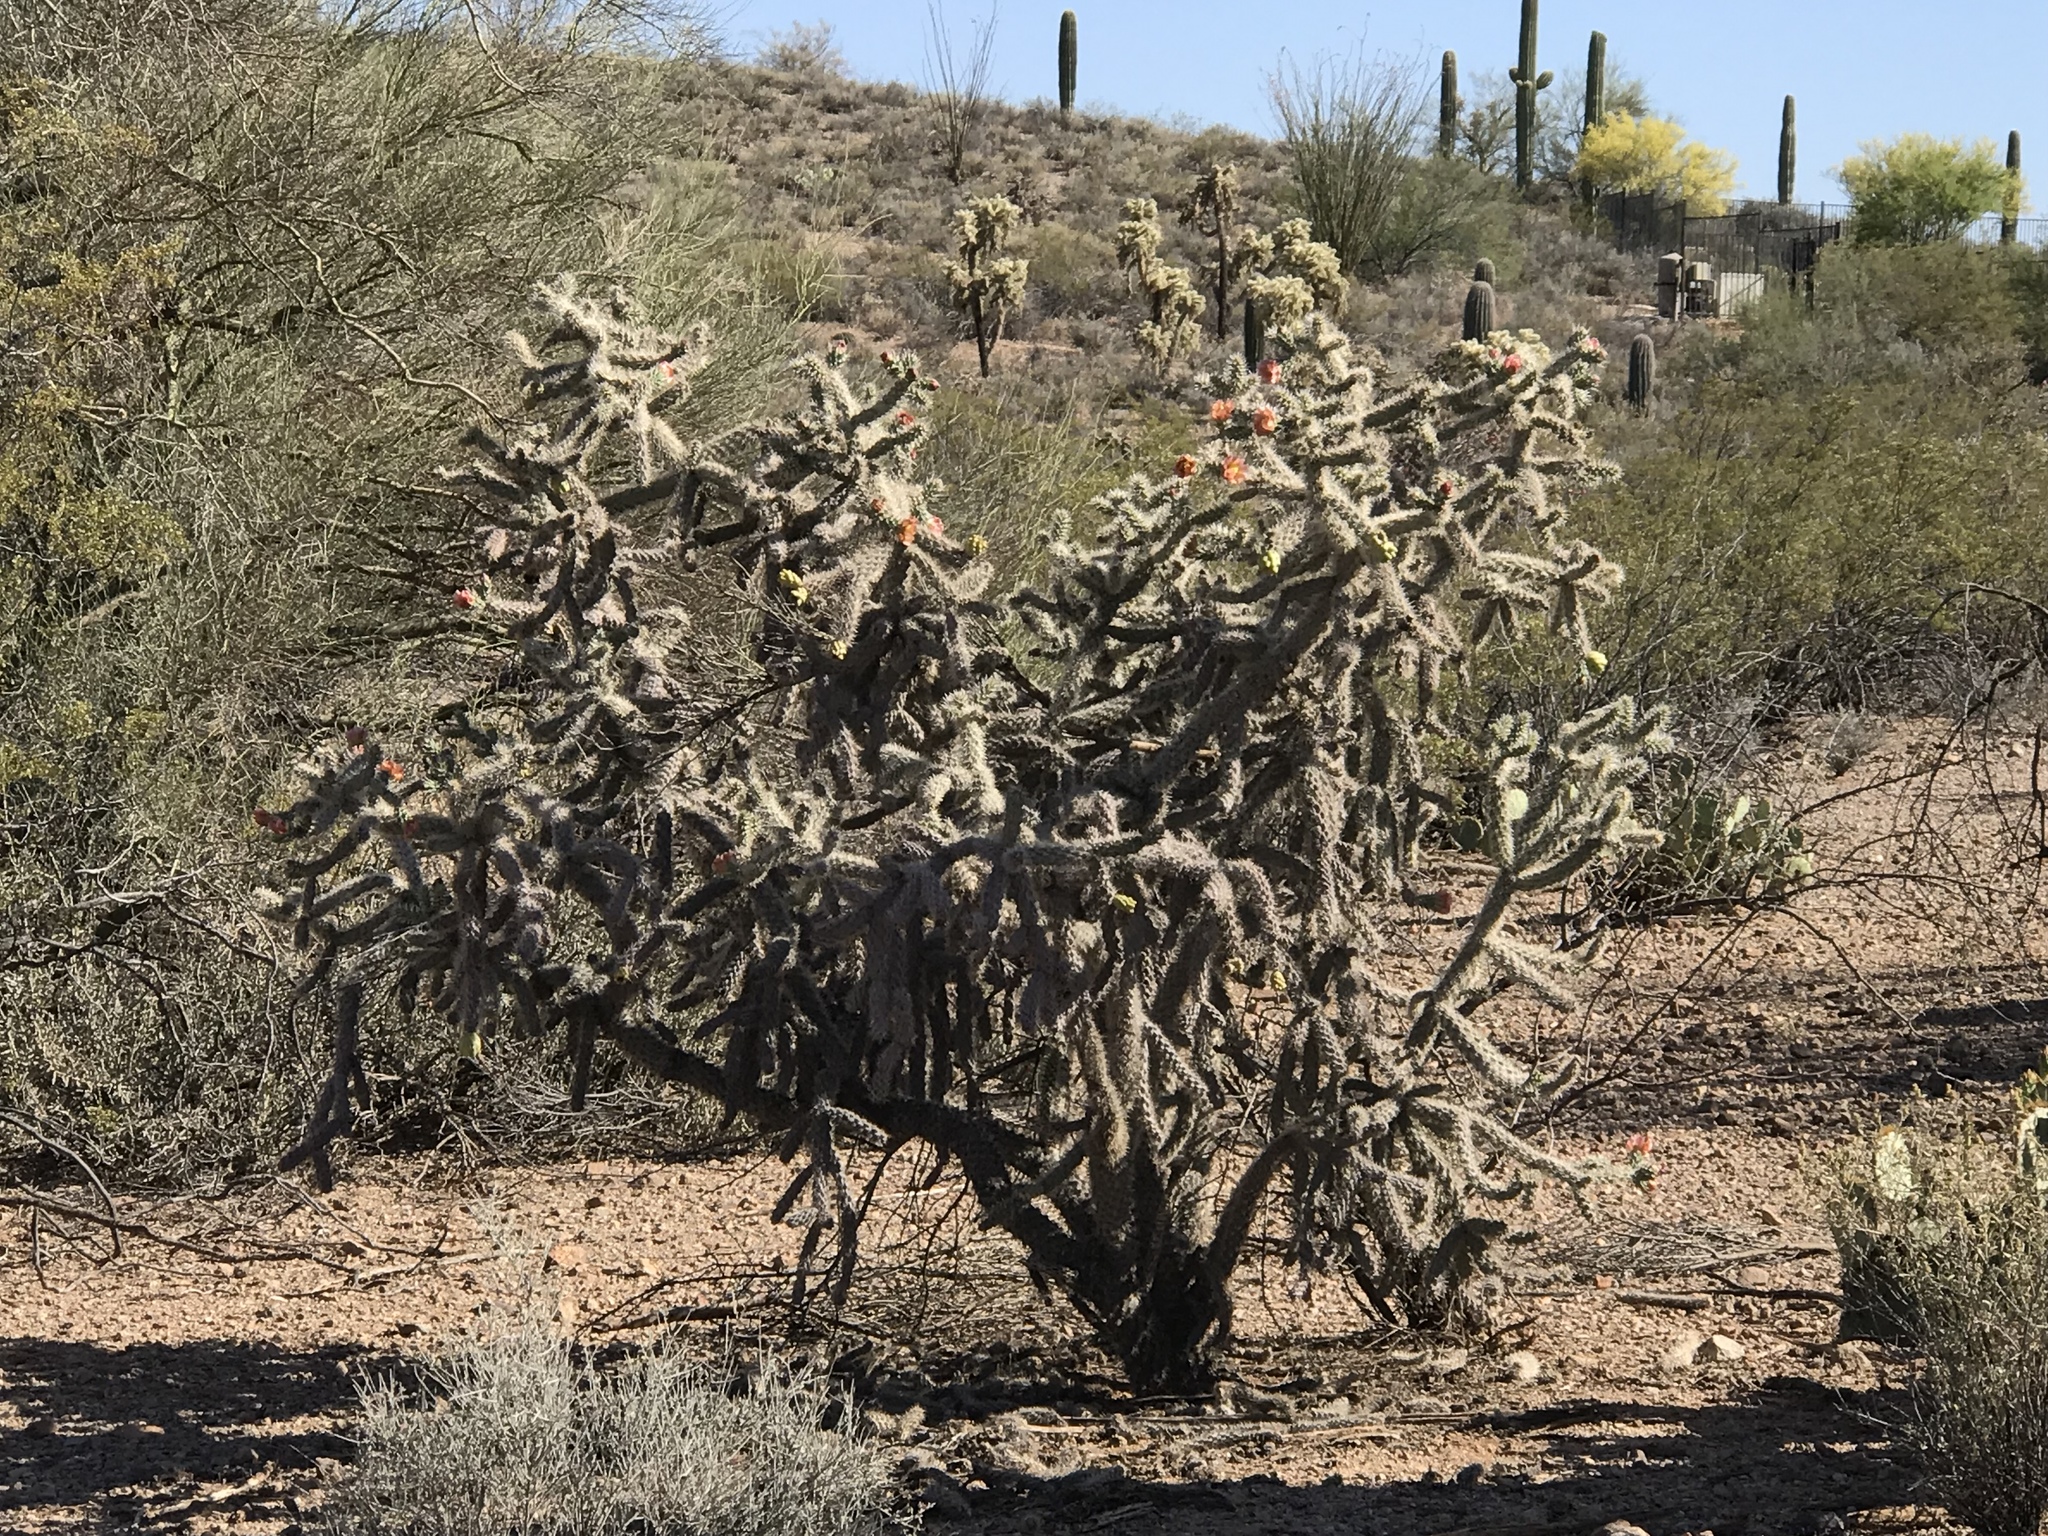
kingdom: Plantae
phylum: Tracheophyta
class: Magnoliopsida
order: Caryophyllales
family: Cactaceae
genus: Cylindropuntia
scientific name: Cylindropuntia imbricata
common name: Candelabrum cactus
